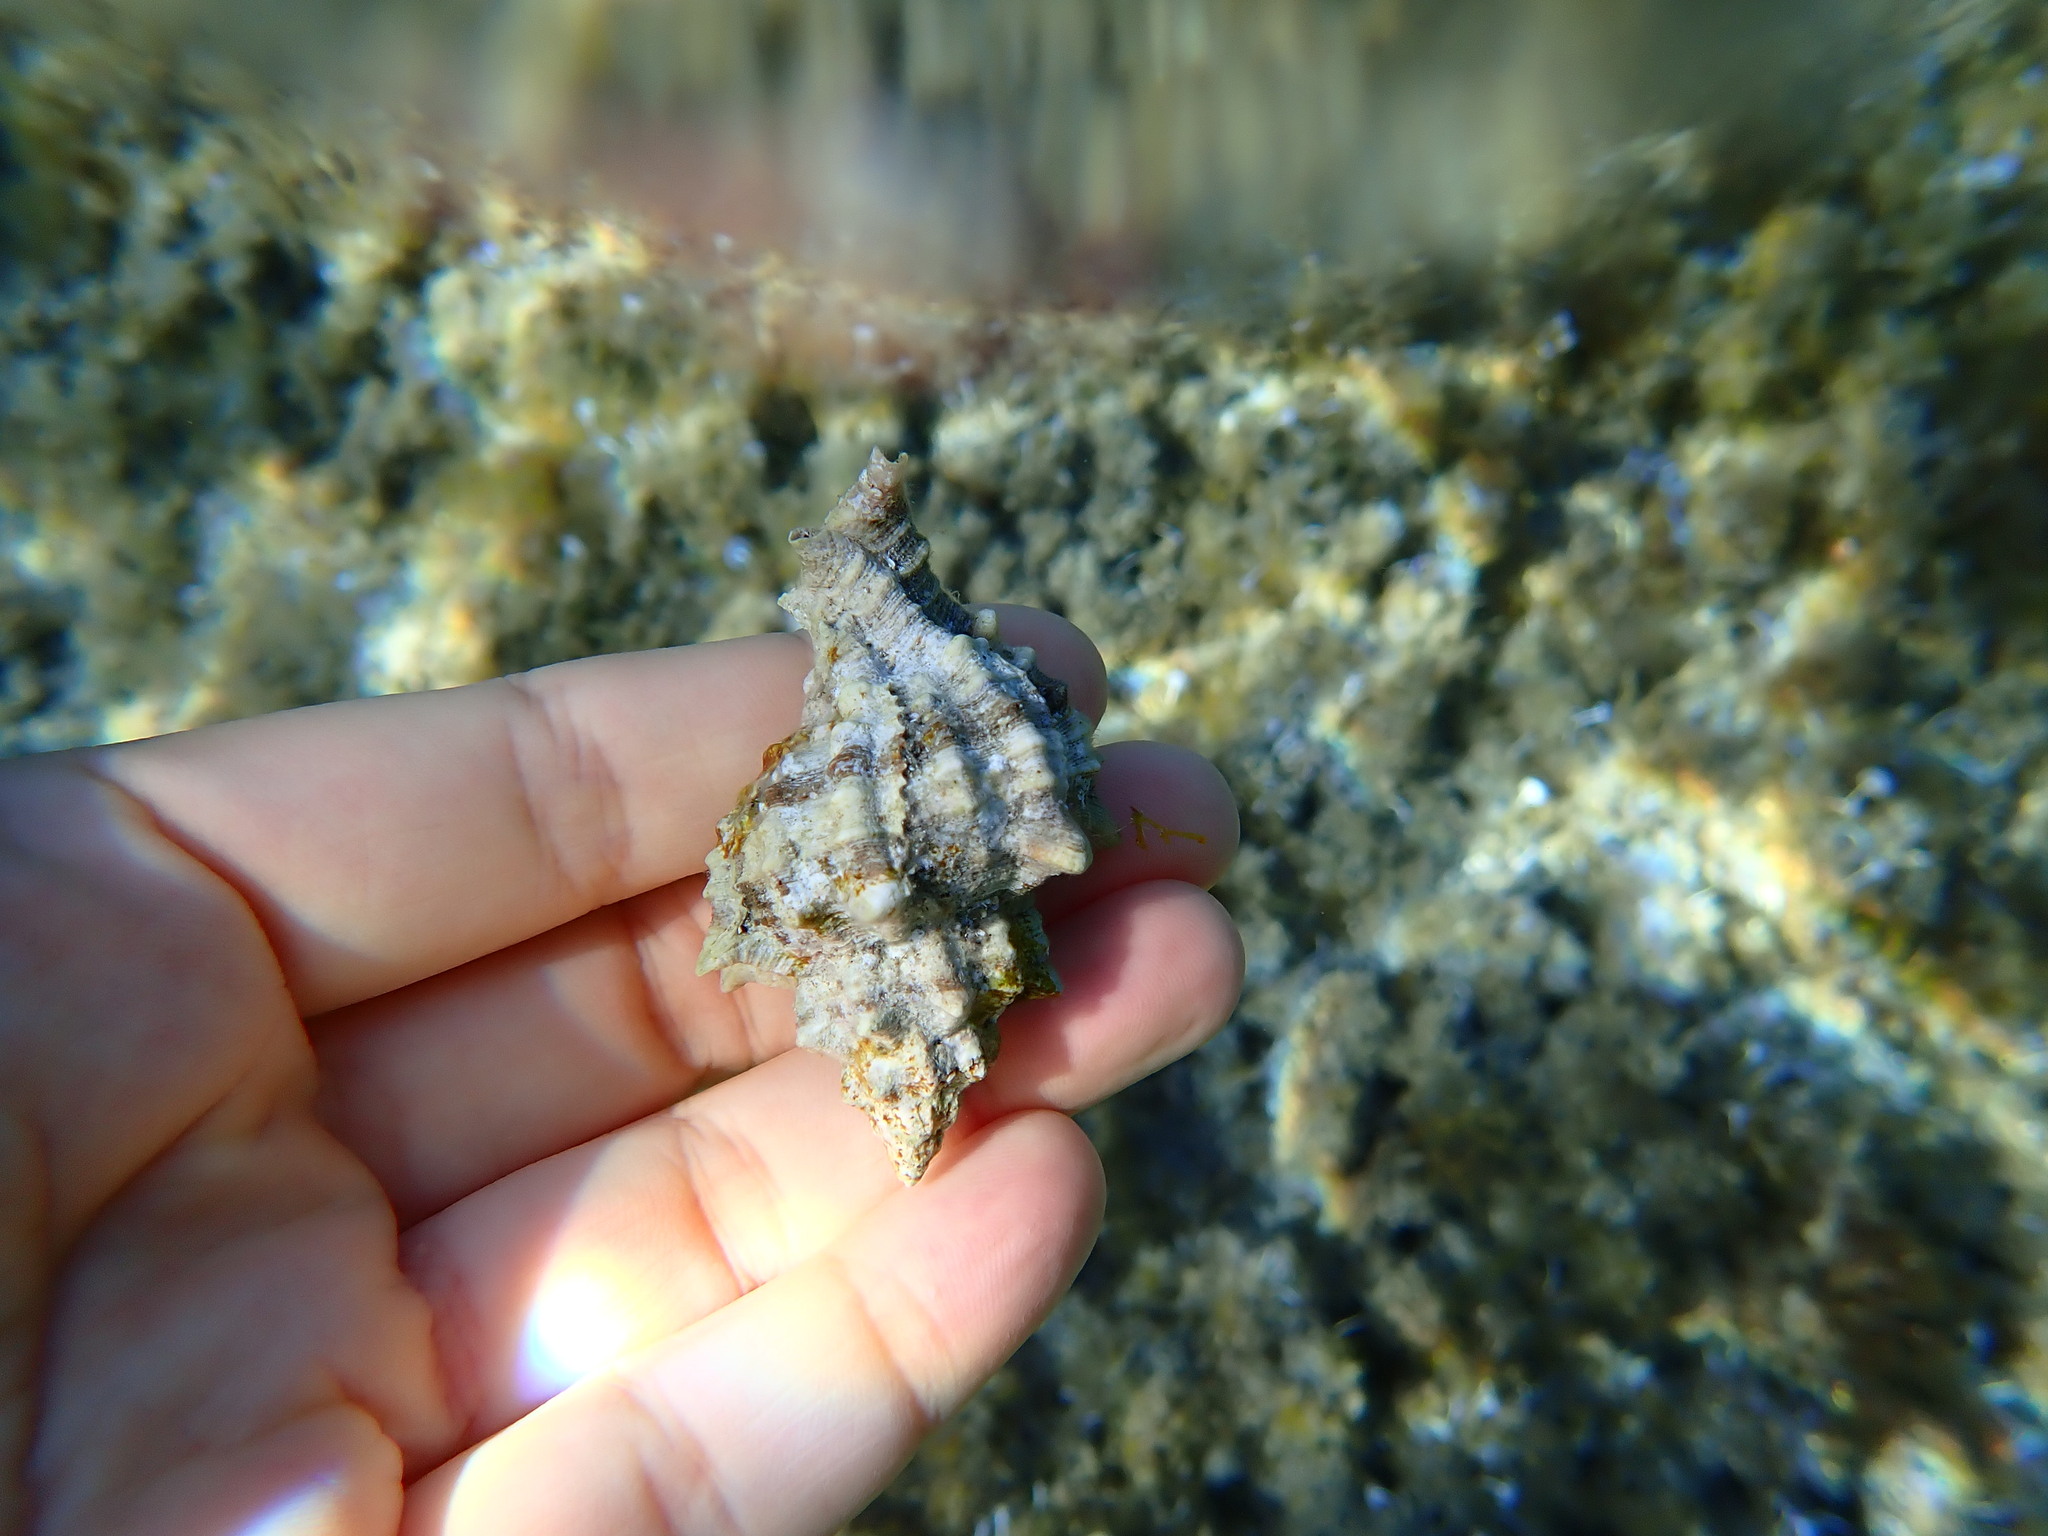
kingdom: Animalia
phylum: Mollusca
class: Gastropoda
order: Neogastropoda
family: Muricidae
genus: Hexaplex
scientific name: Hexaplex trunculus
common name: Banded dye-murex
